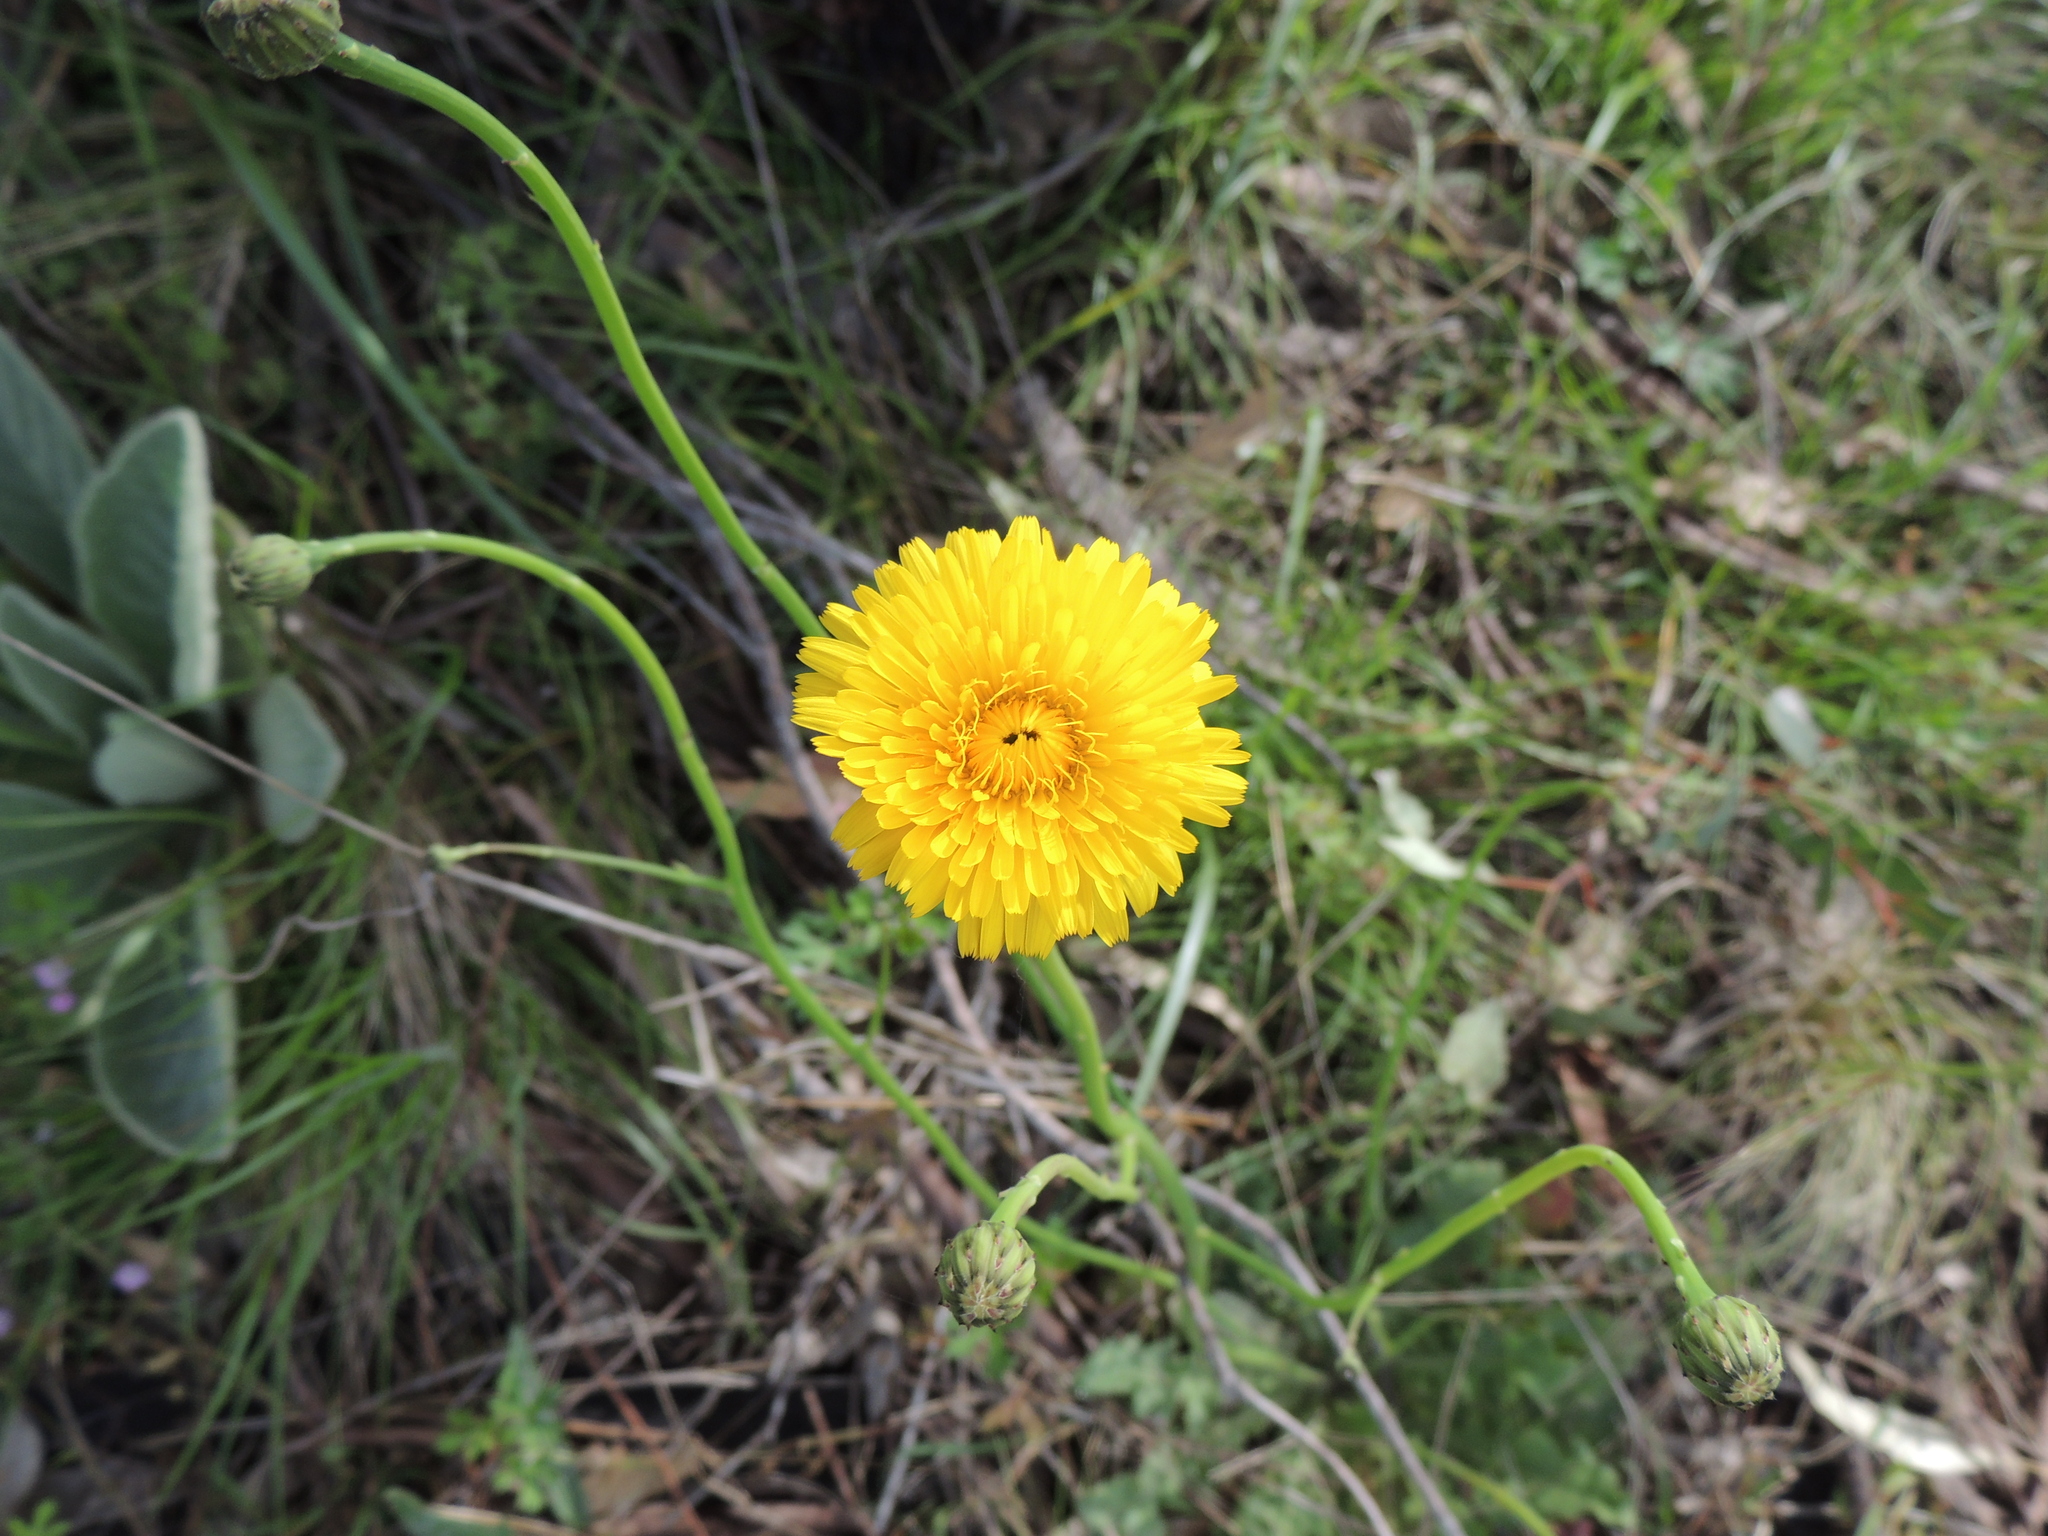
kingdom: Plantae
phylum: Tracheophyta
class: Magnoliopsida
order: Asterales
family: Asteraceae
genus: Hypochaeris
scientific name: Hypochaeris radicata
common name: Flatweed
